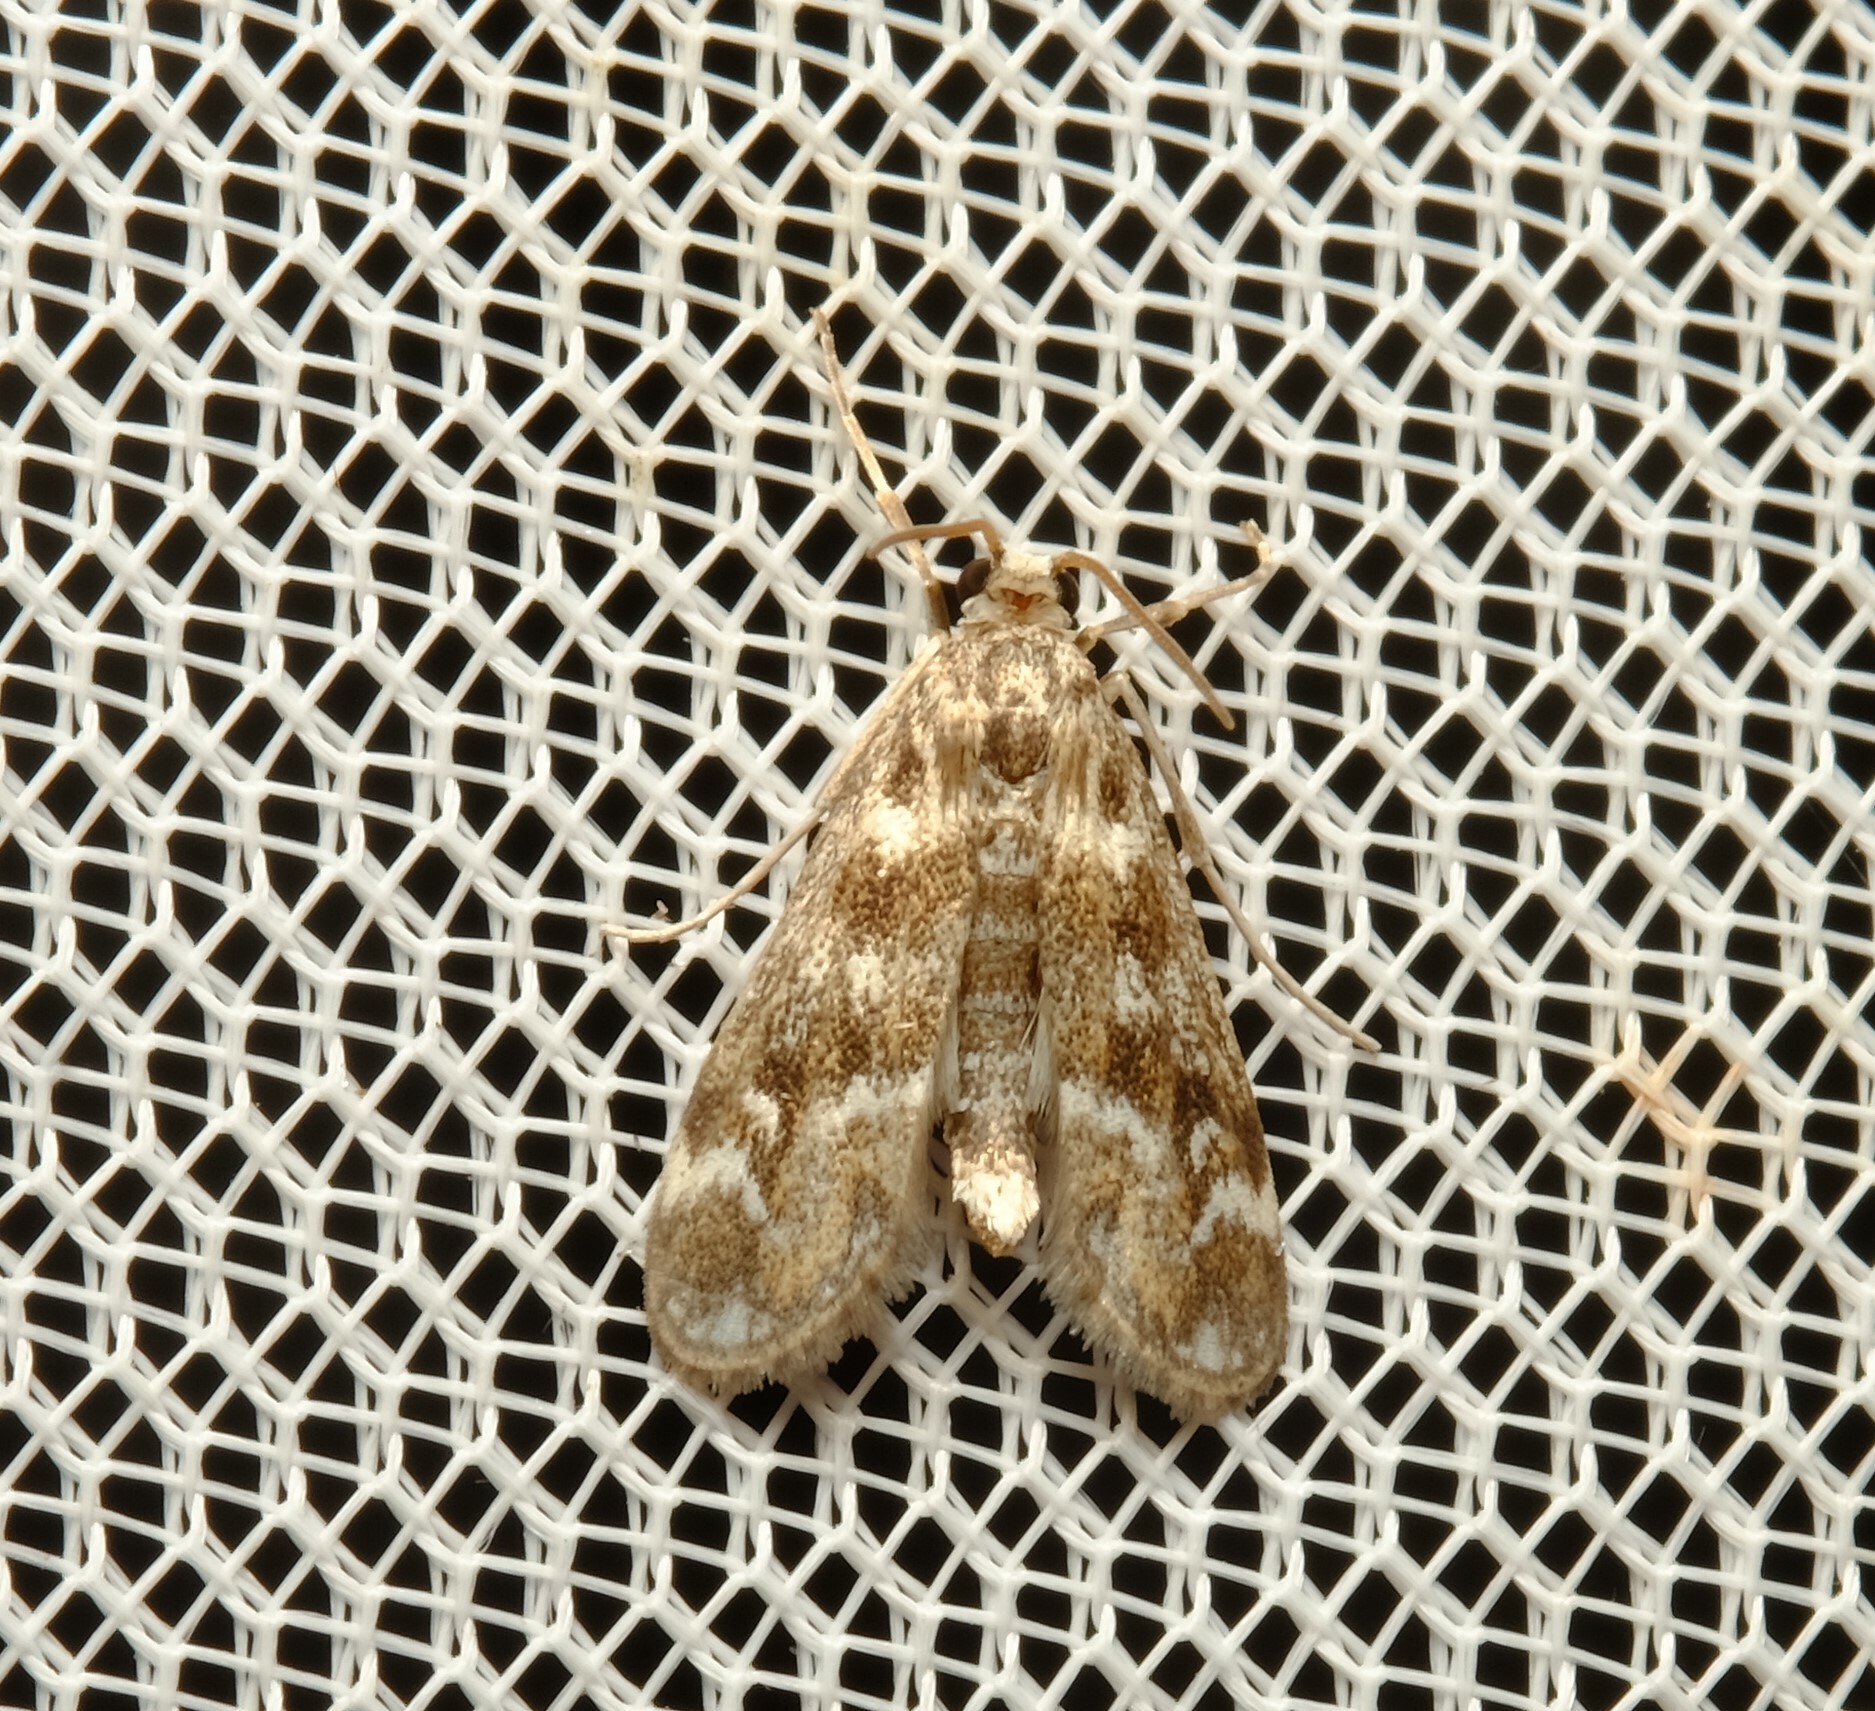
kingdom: Animalia
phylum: Arthropoda
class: Insecta
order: Lepidoptera
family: Crambidae
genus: Hygraula
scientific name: Hygraula nitens
